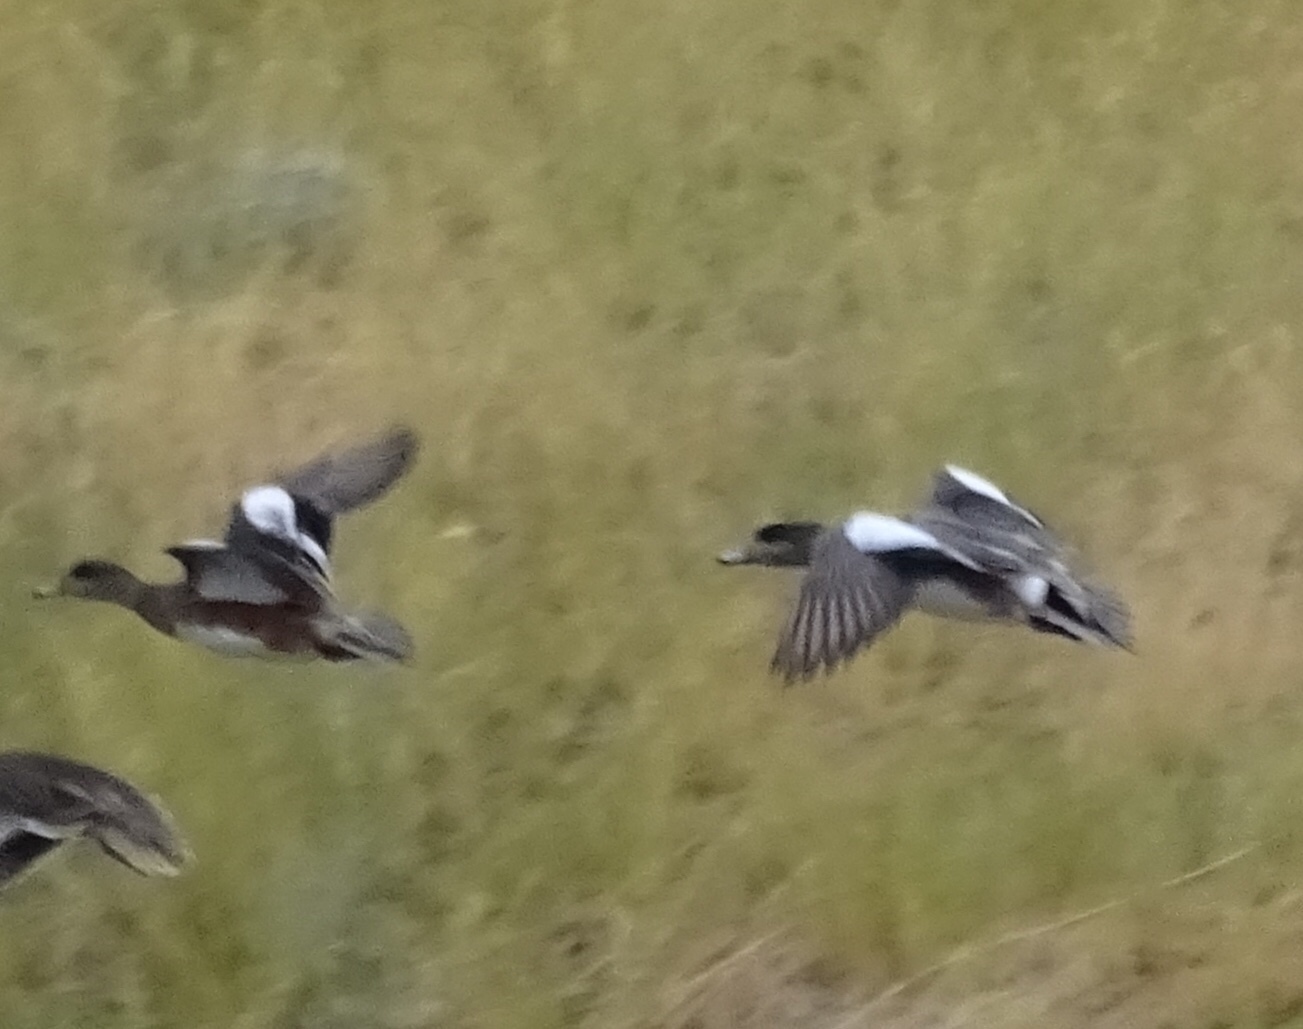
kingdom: Animalia
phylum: Chordata
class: Aves
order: Anseriformes
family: Anatidae
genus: Mareca
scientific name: Mareca americana
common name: American wigeon
